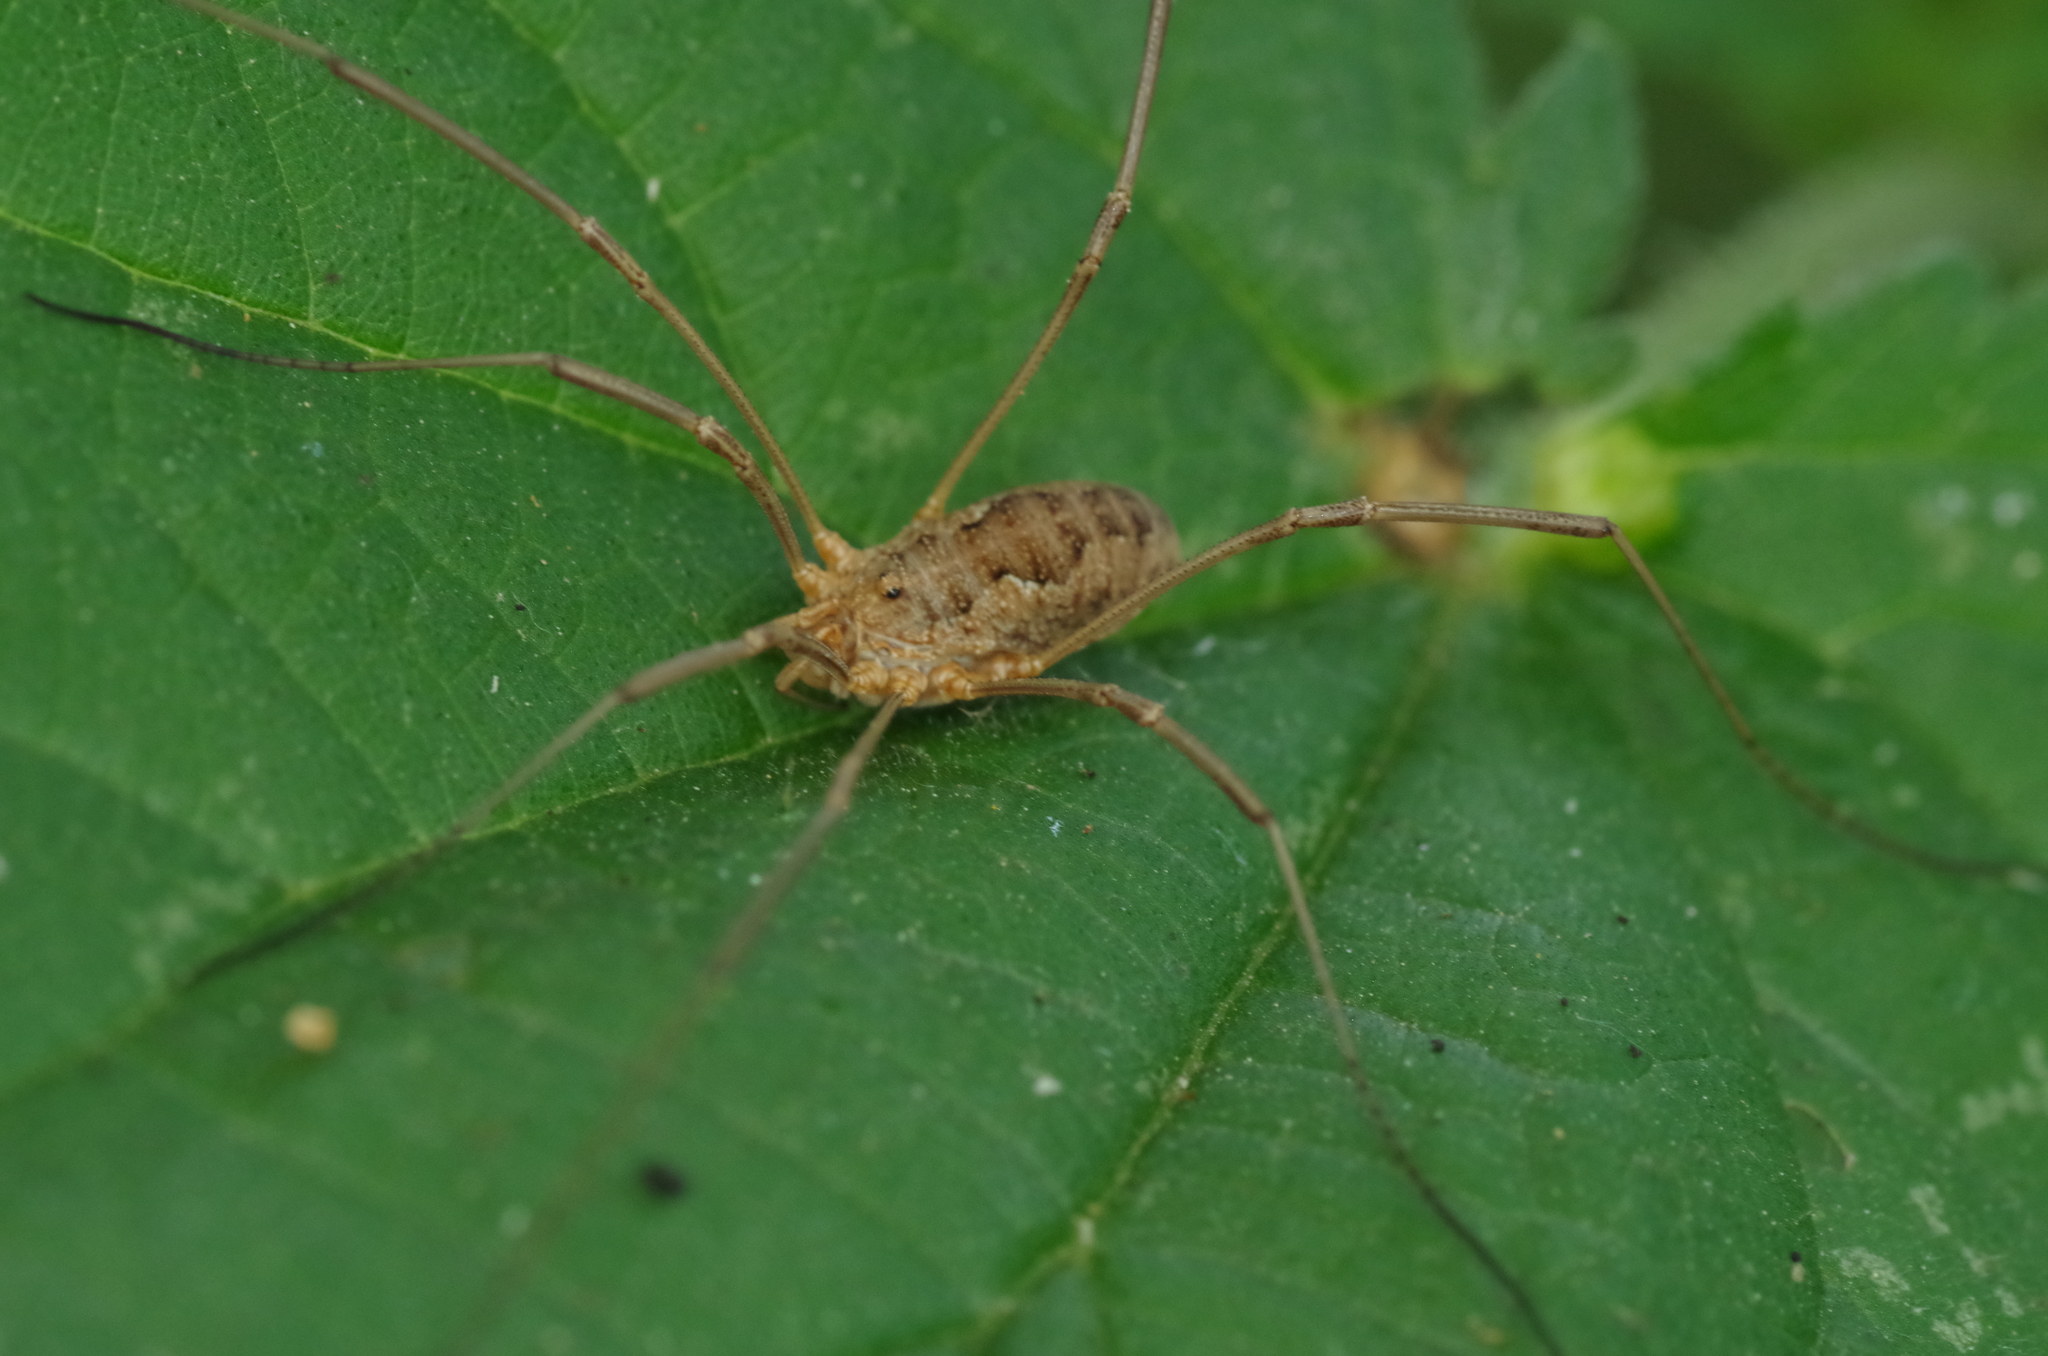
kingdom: Animalia
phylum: Arthropoda
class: Arachnida
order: Opiliones
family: Phalangiidae
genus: Phalangium
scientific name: Phalangium opilio
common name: Daddy longleg
